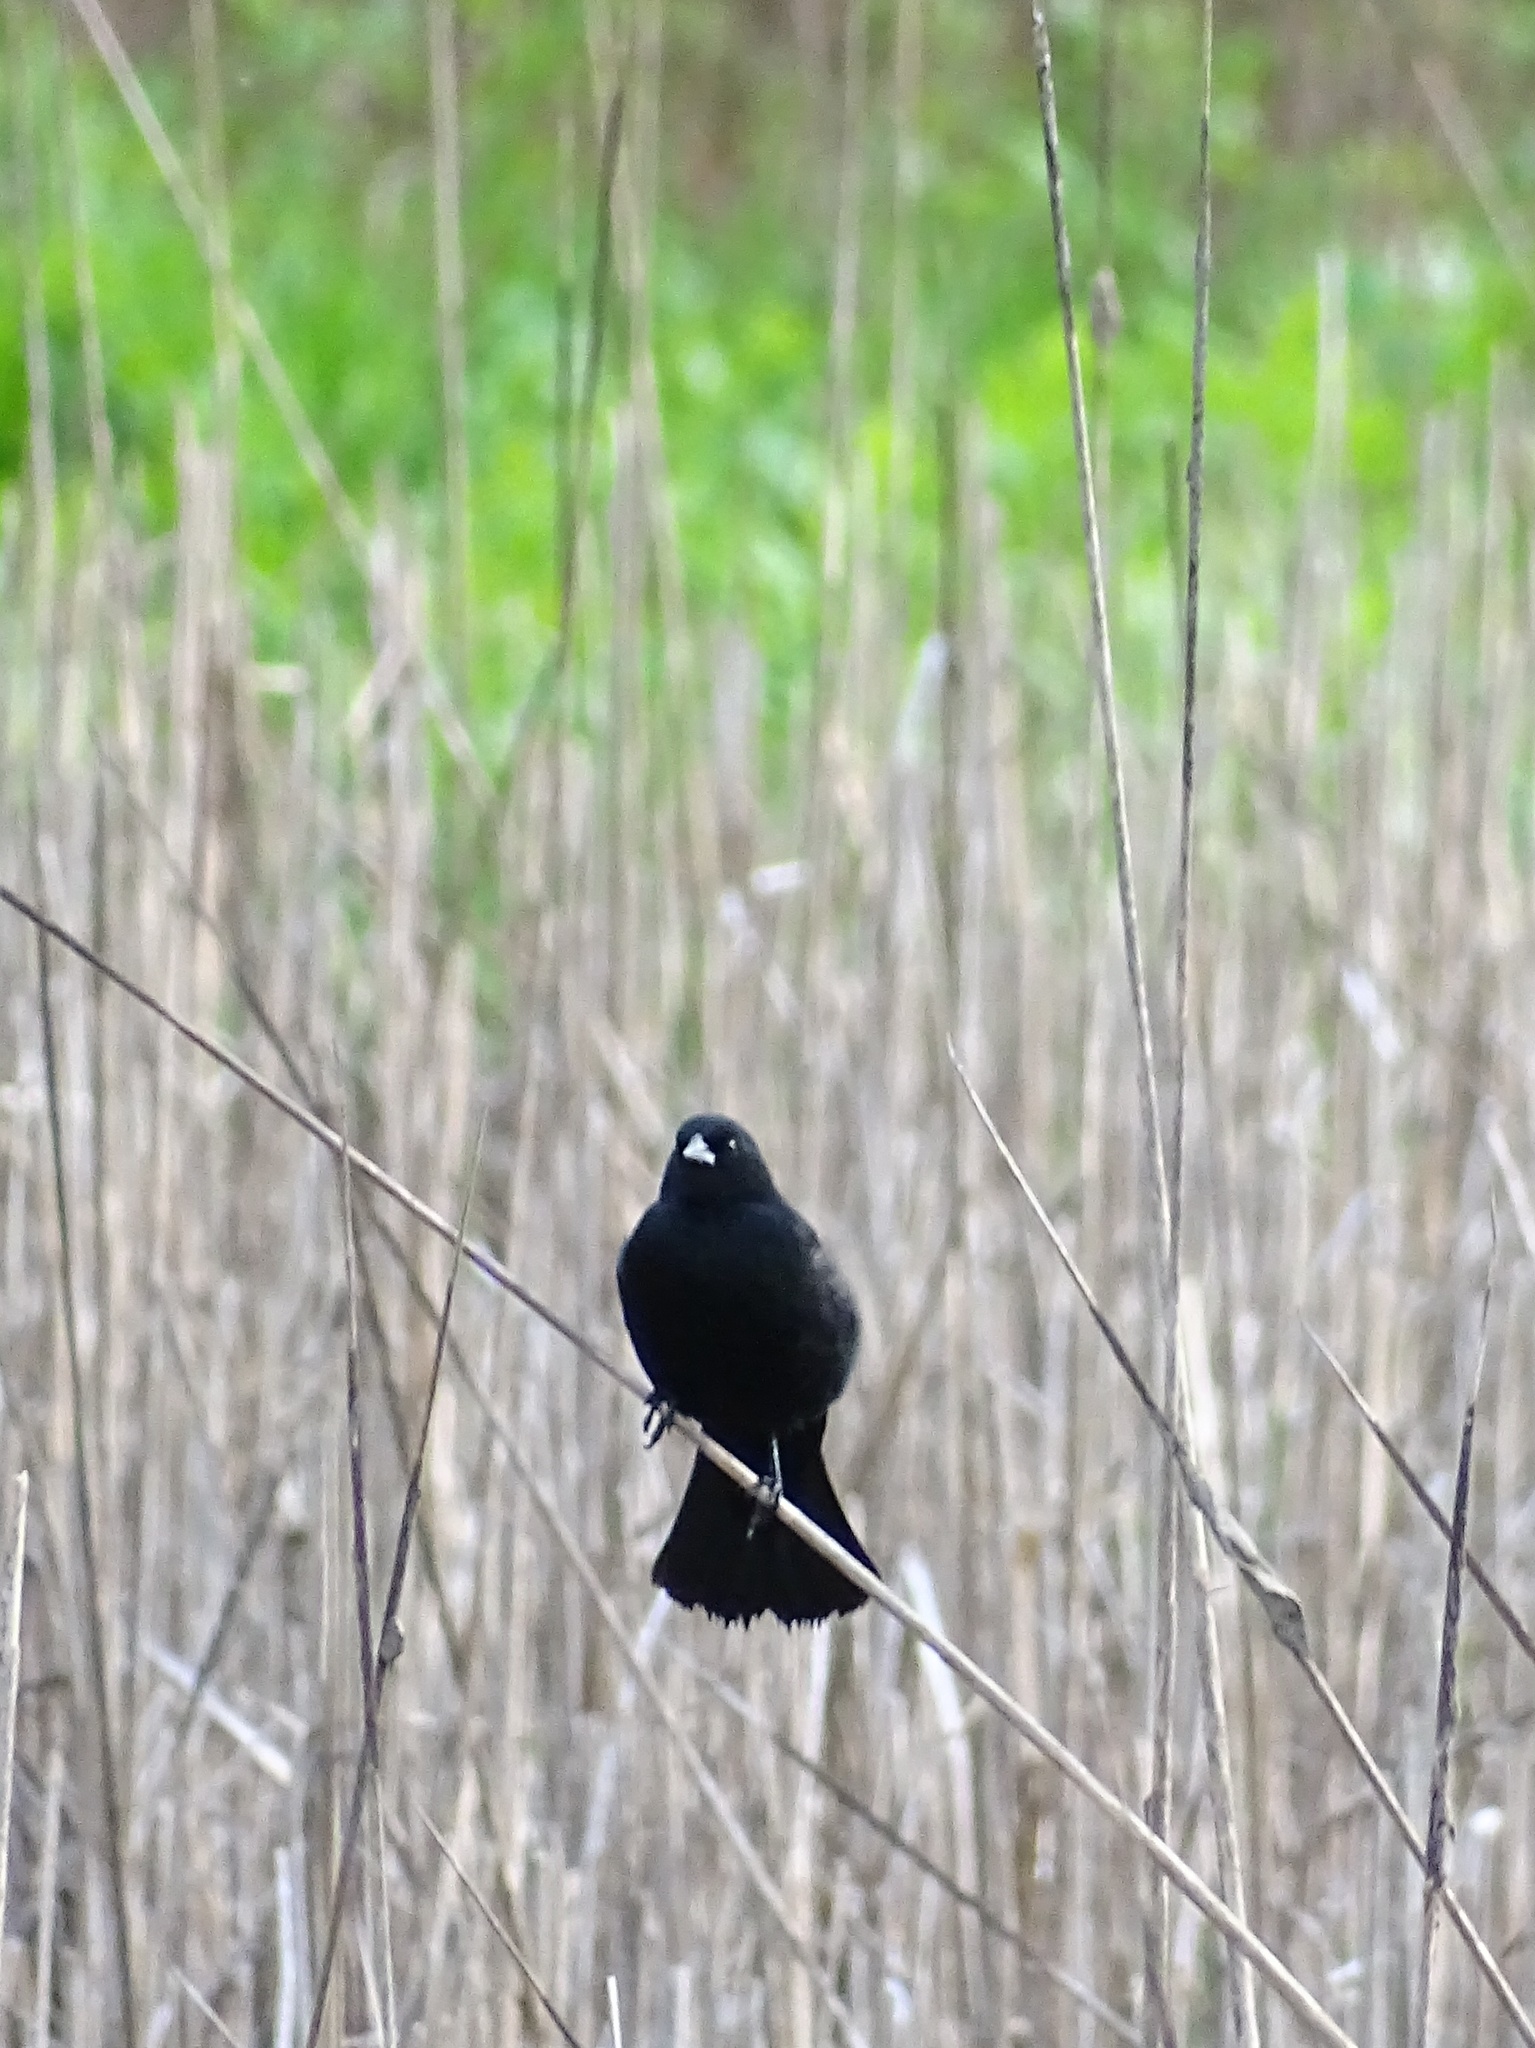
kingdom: Animalia
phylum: Chordata
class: Aves
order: Passeriformes
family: Icteridae
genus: Agelaius
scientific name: Agelaius phoeniceus
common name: Red-winged blackbird
